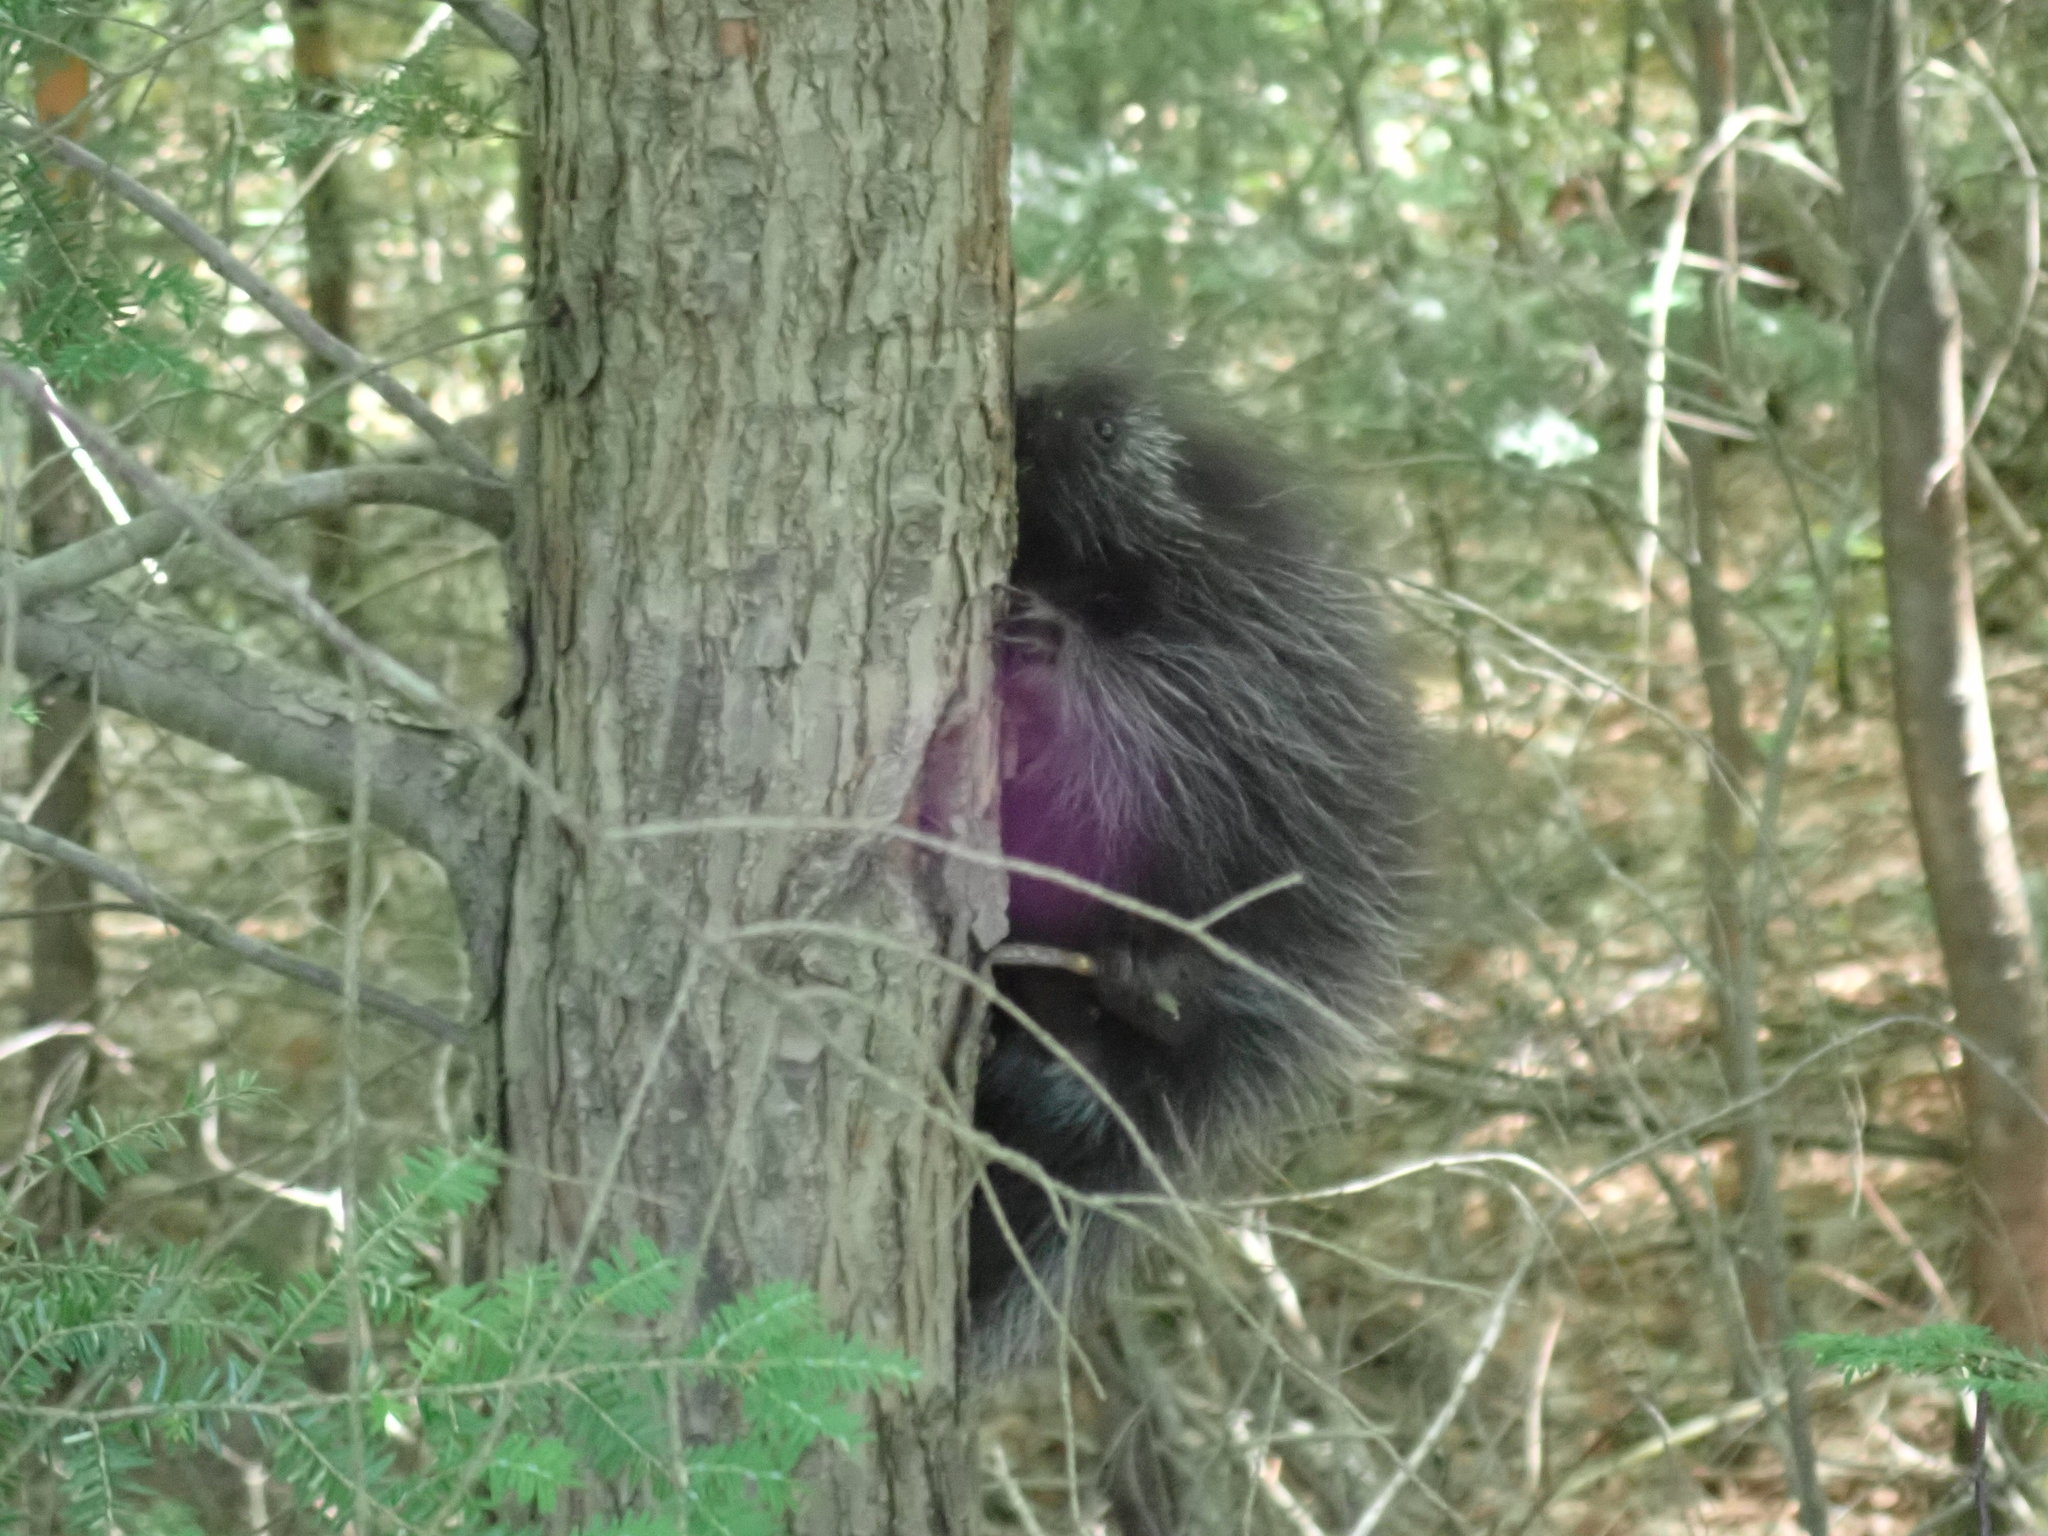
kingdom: Animalia
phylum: Chordata
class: Mammalia
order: Rodentia
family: Erethizontidae
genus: Erethizon
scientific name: Erethizon dorsatus
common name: North american porcupine
